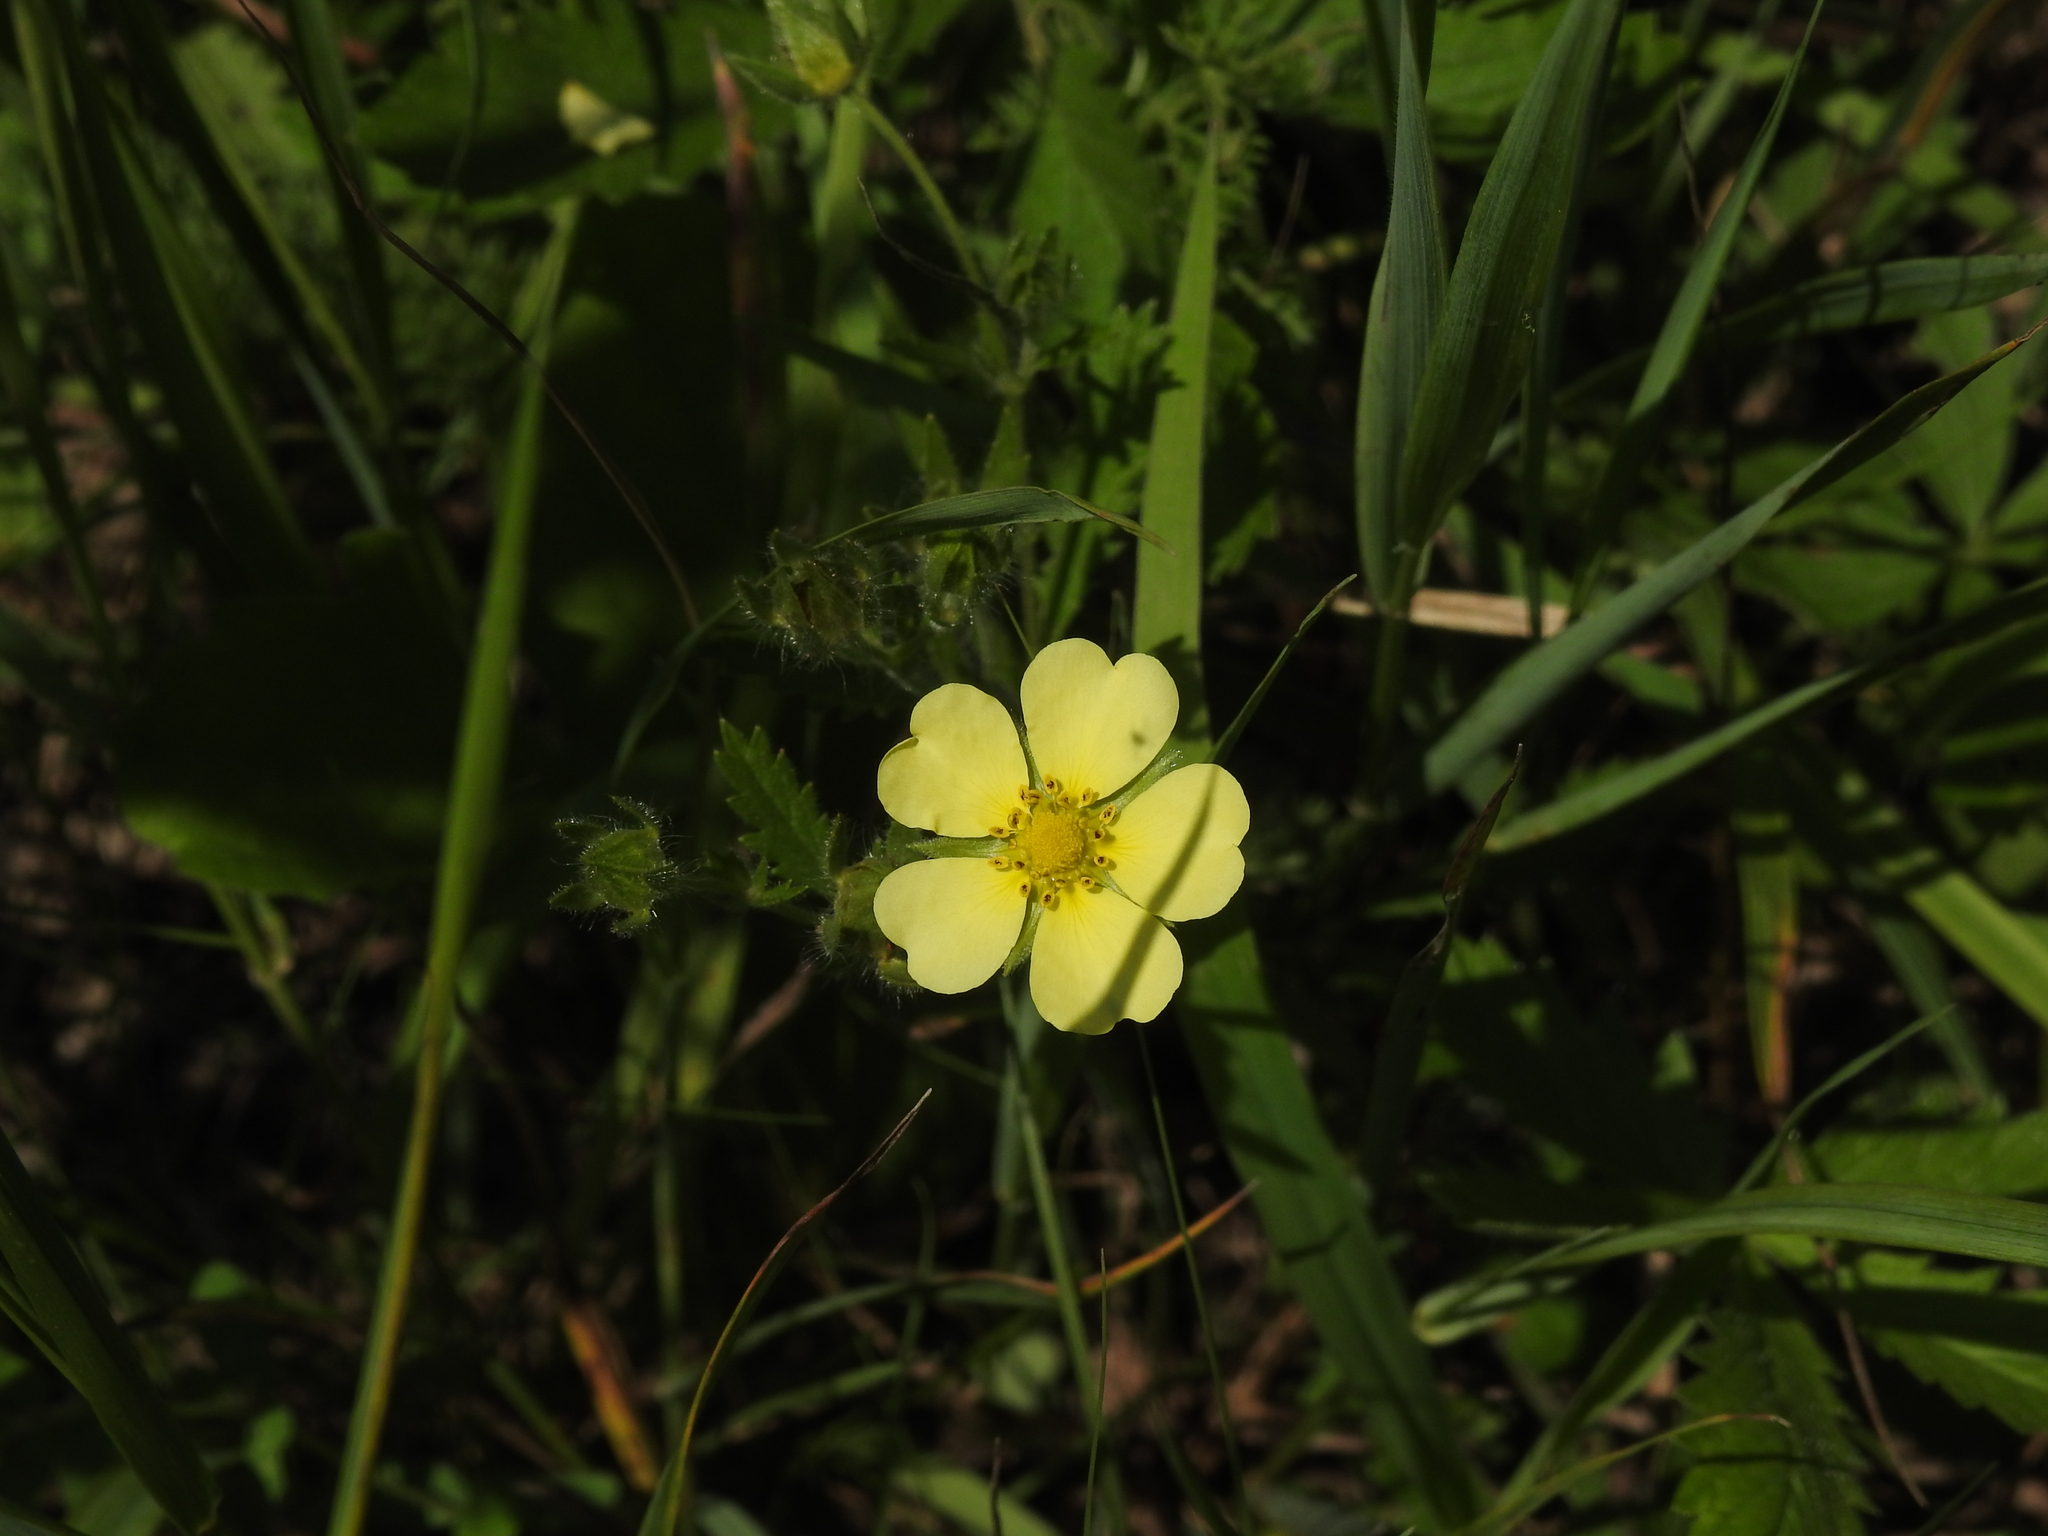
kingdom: Plantae
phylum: Tracheophyta
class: Magnoliopsida
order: Rosales
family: Rosaceae
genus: Potentilla
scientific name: Potentilla recta
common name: Sulphur cinquefoil
